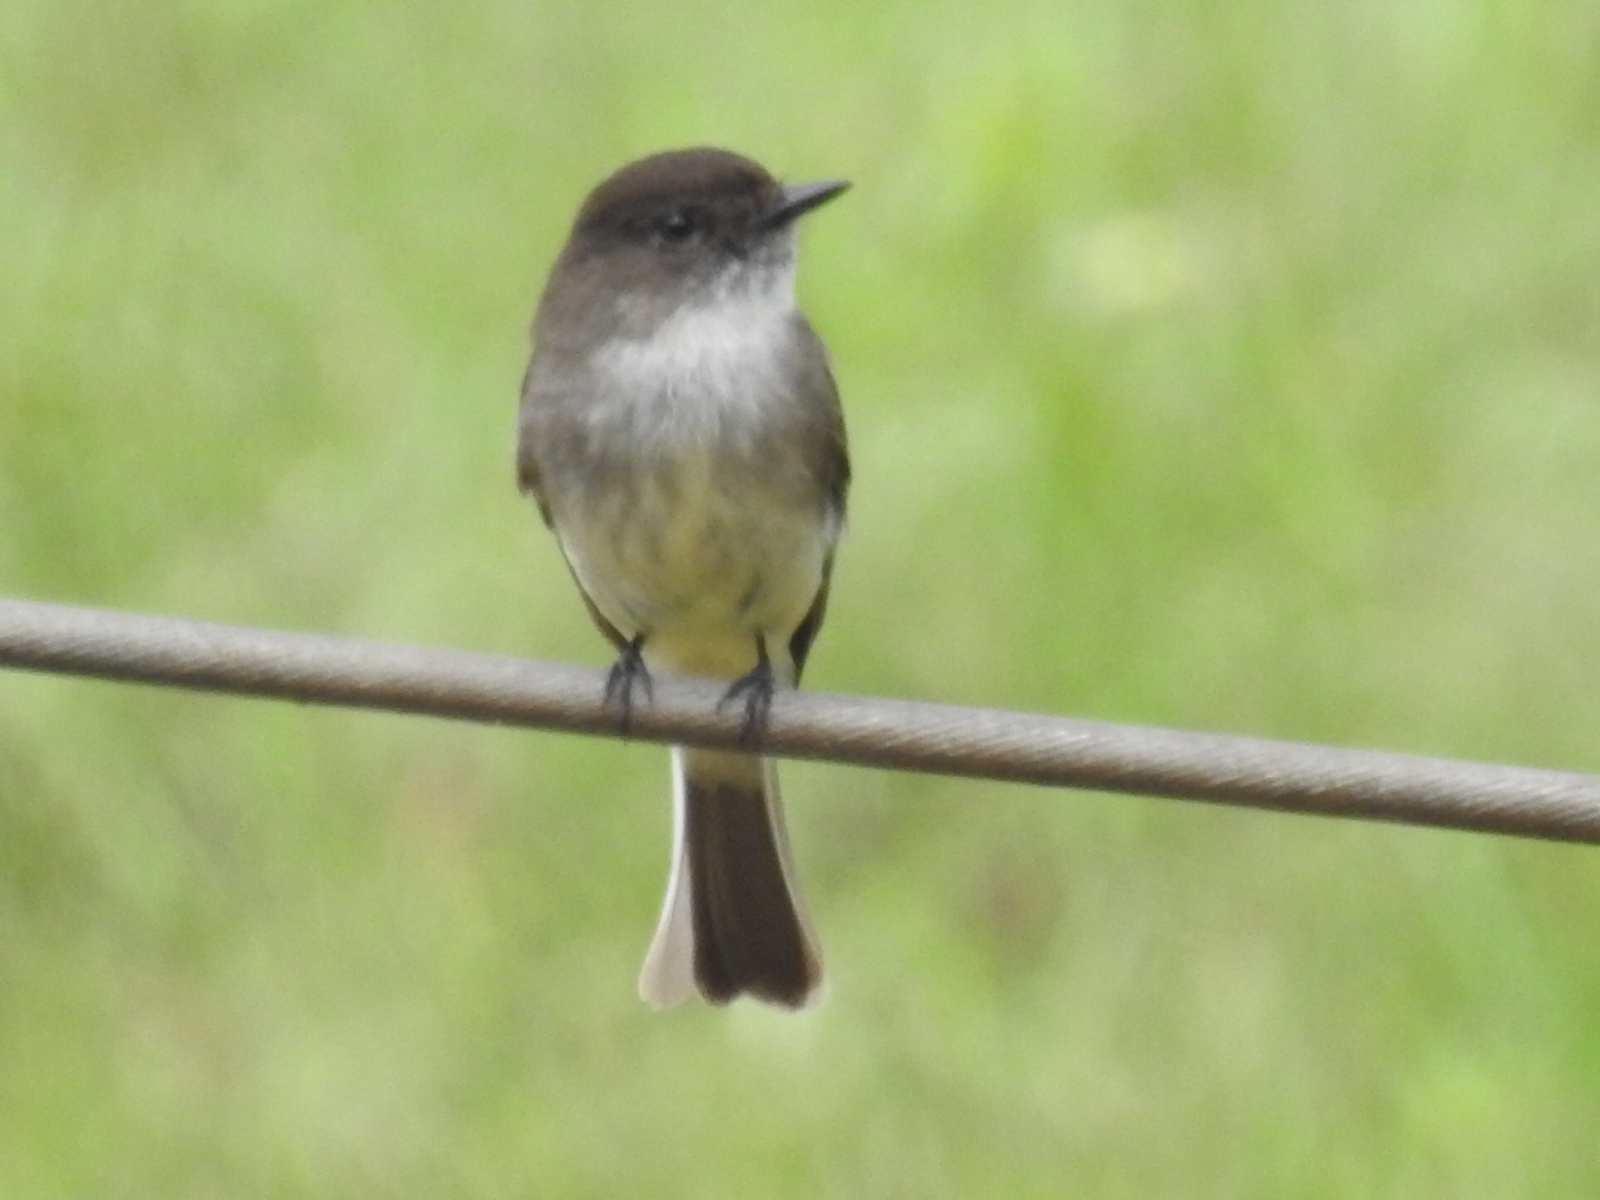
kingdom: Animalia
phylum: Chordata
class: Aves
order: Passeriformes
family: Tyrannidae
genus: Sayornis
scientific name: Sayornis phoebe
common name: Eastern phoebe
